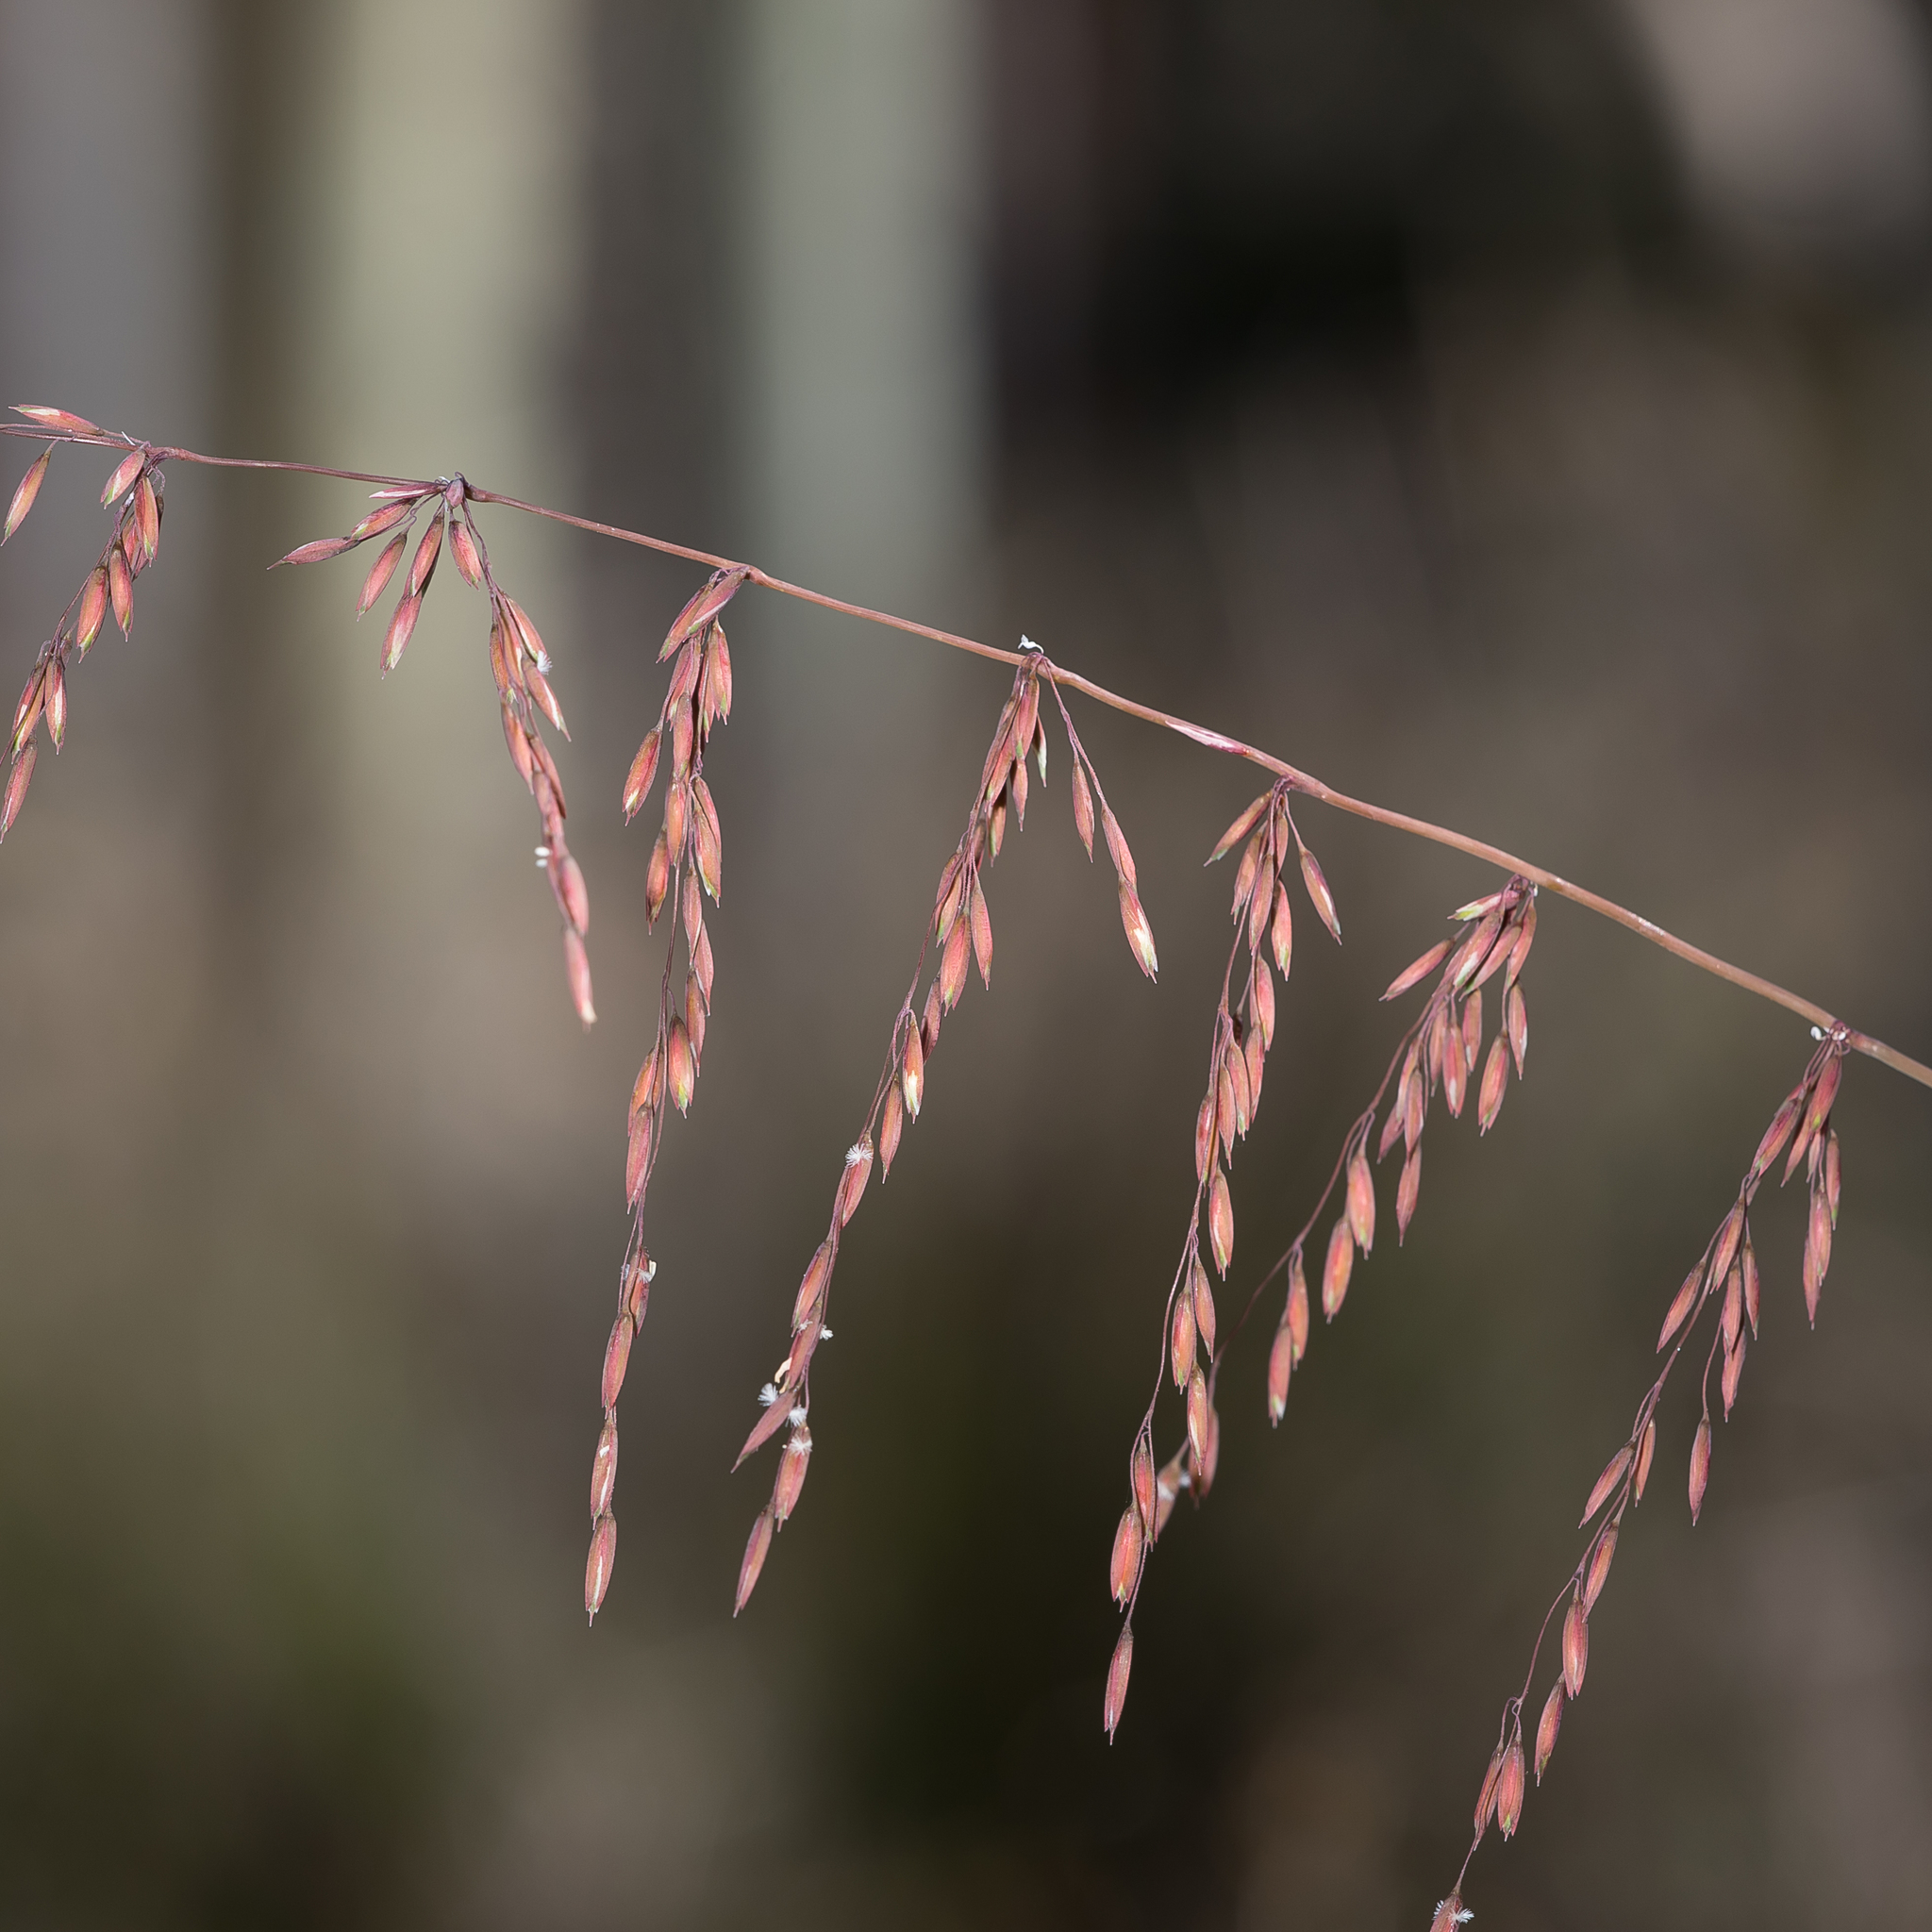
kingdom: Plantae
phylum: Tracheophyta
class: Liliopsida
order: Poales
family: Poaceae
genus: Ehrharta
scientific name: Ehrharta calycina
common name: Perennial veldtgrass
